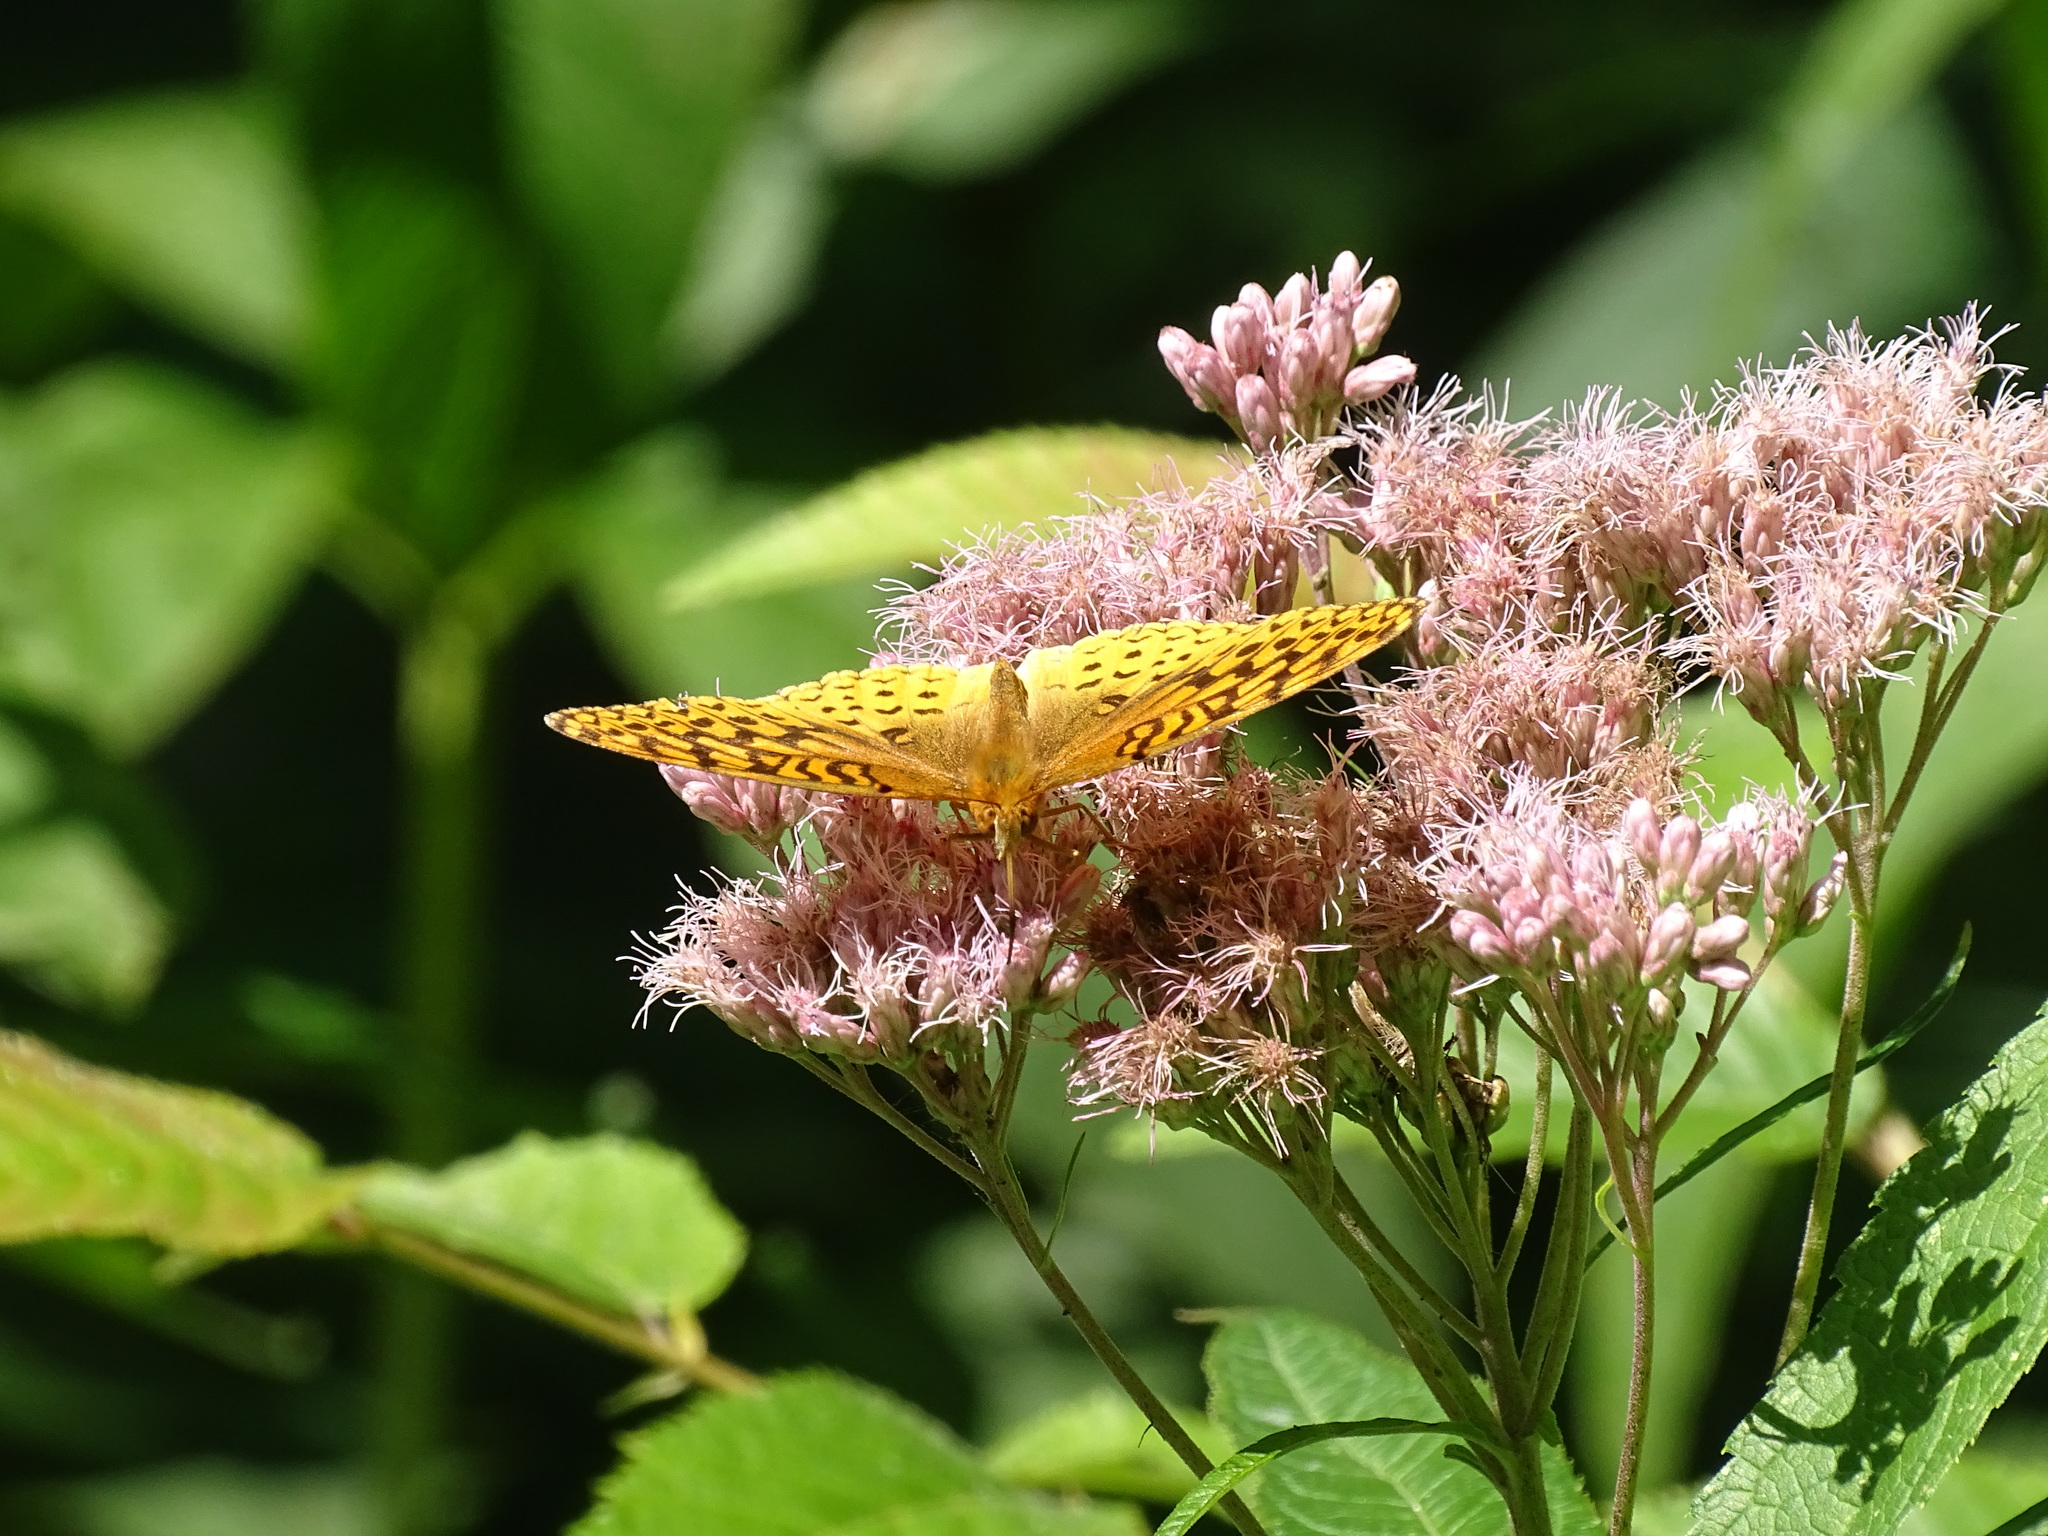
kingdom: Animalia
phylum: Arthropoda
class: Insecta
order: Lepidoptera
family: Nymphalidae
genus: Speyeria
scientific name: Speyeria cybele
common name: Great spangled fritillary
